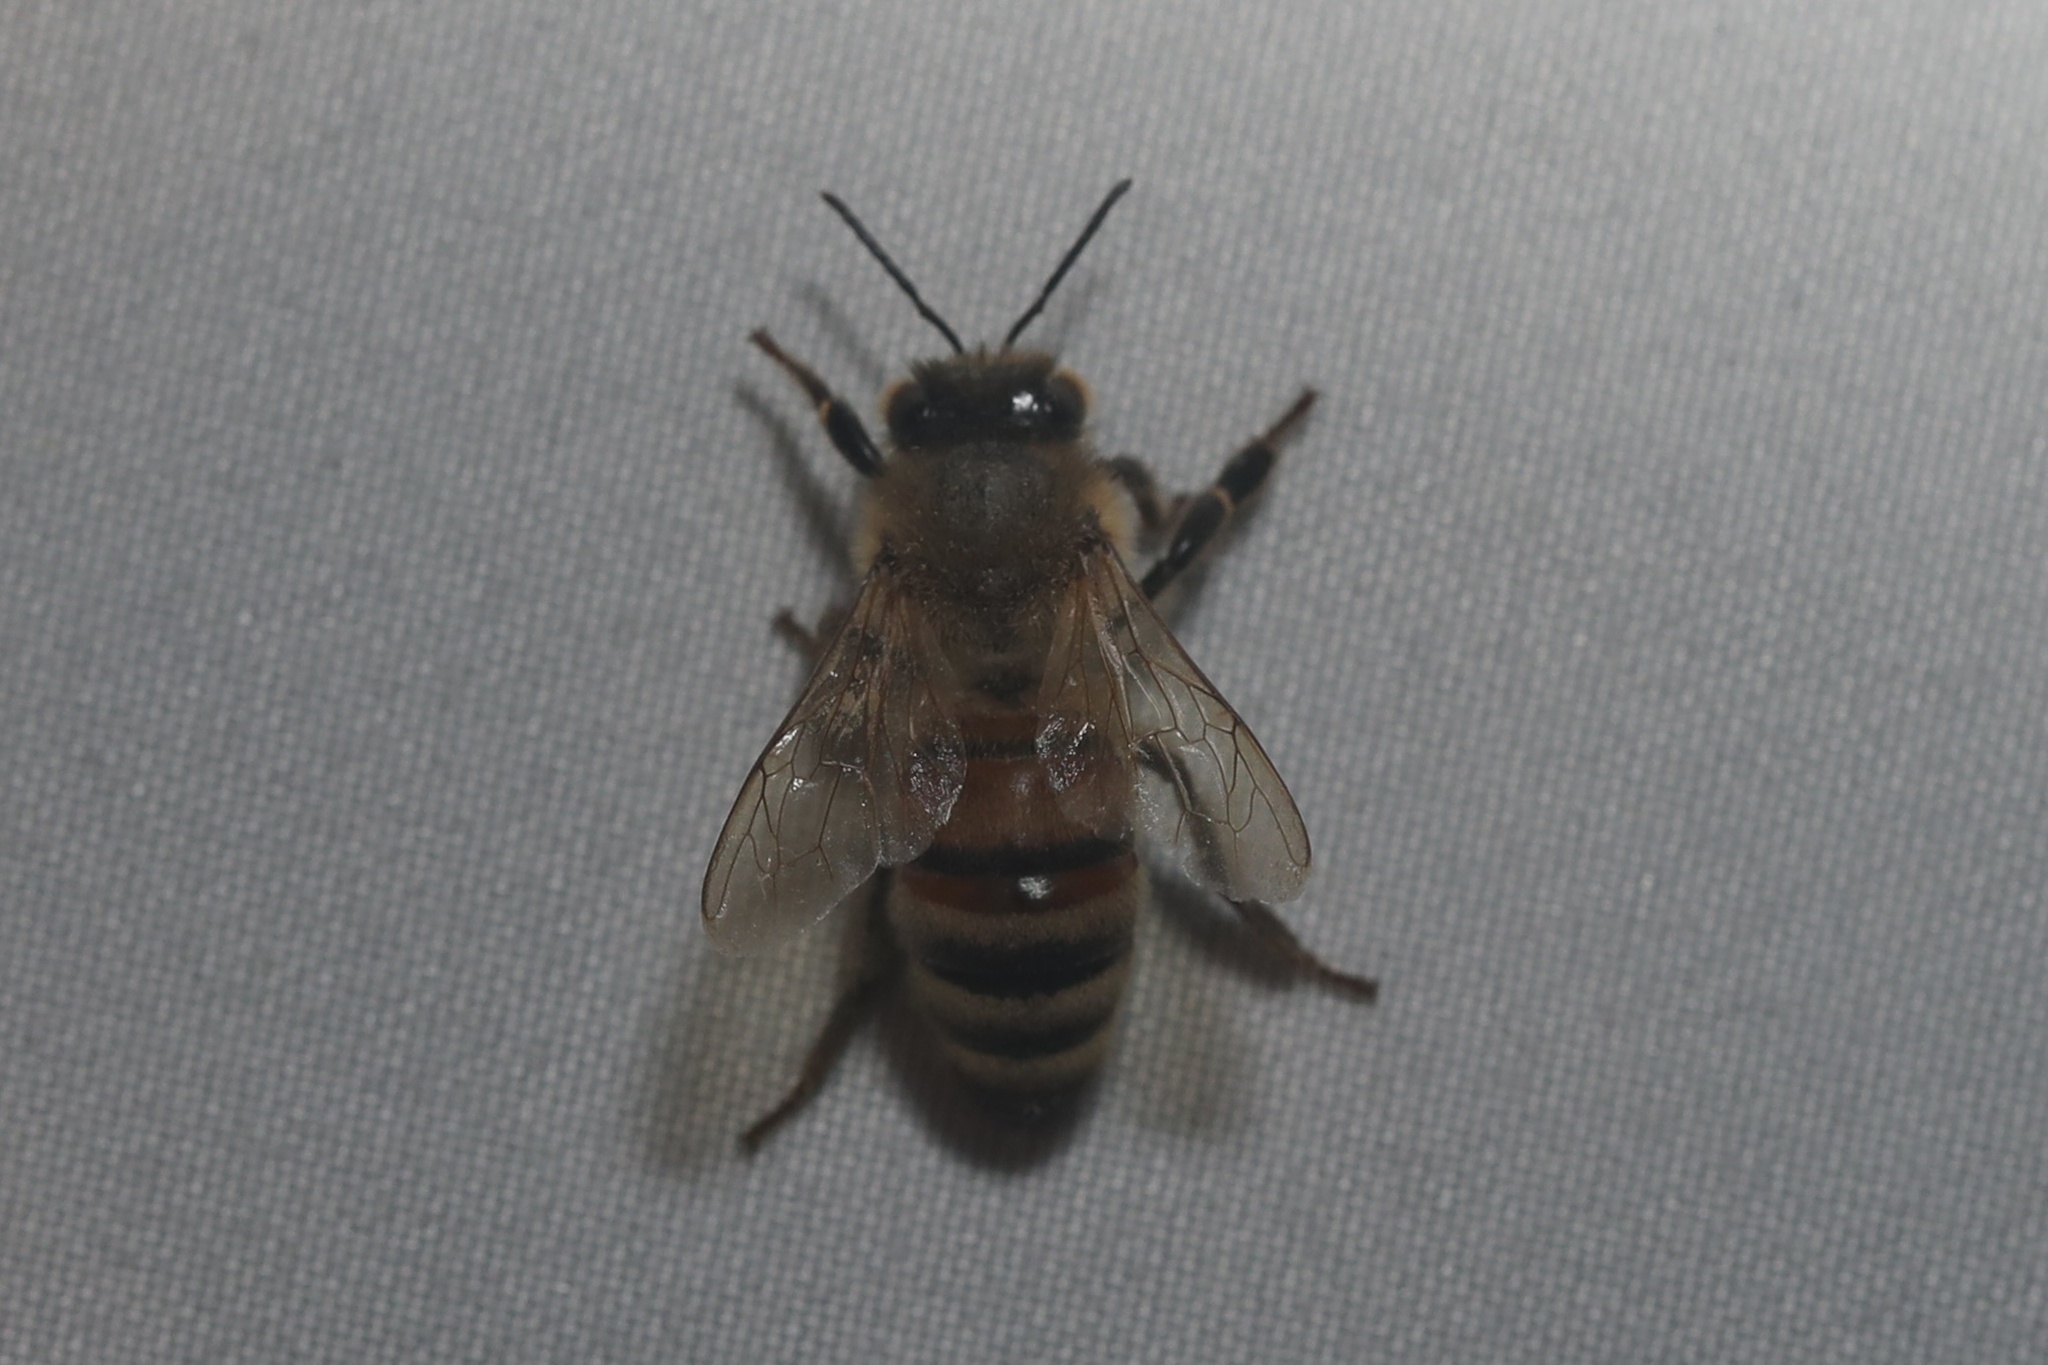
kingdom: Animalia
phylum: Arthropoda
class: Insecta
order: Hymenoptera
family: Apidae
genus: Apis
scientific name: Apis mellifera
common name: Honey bee
